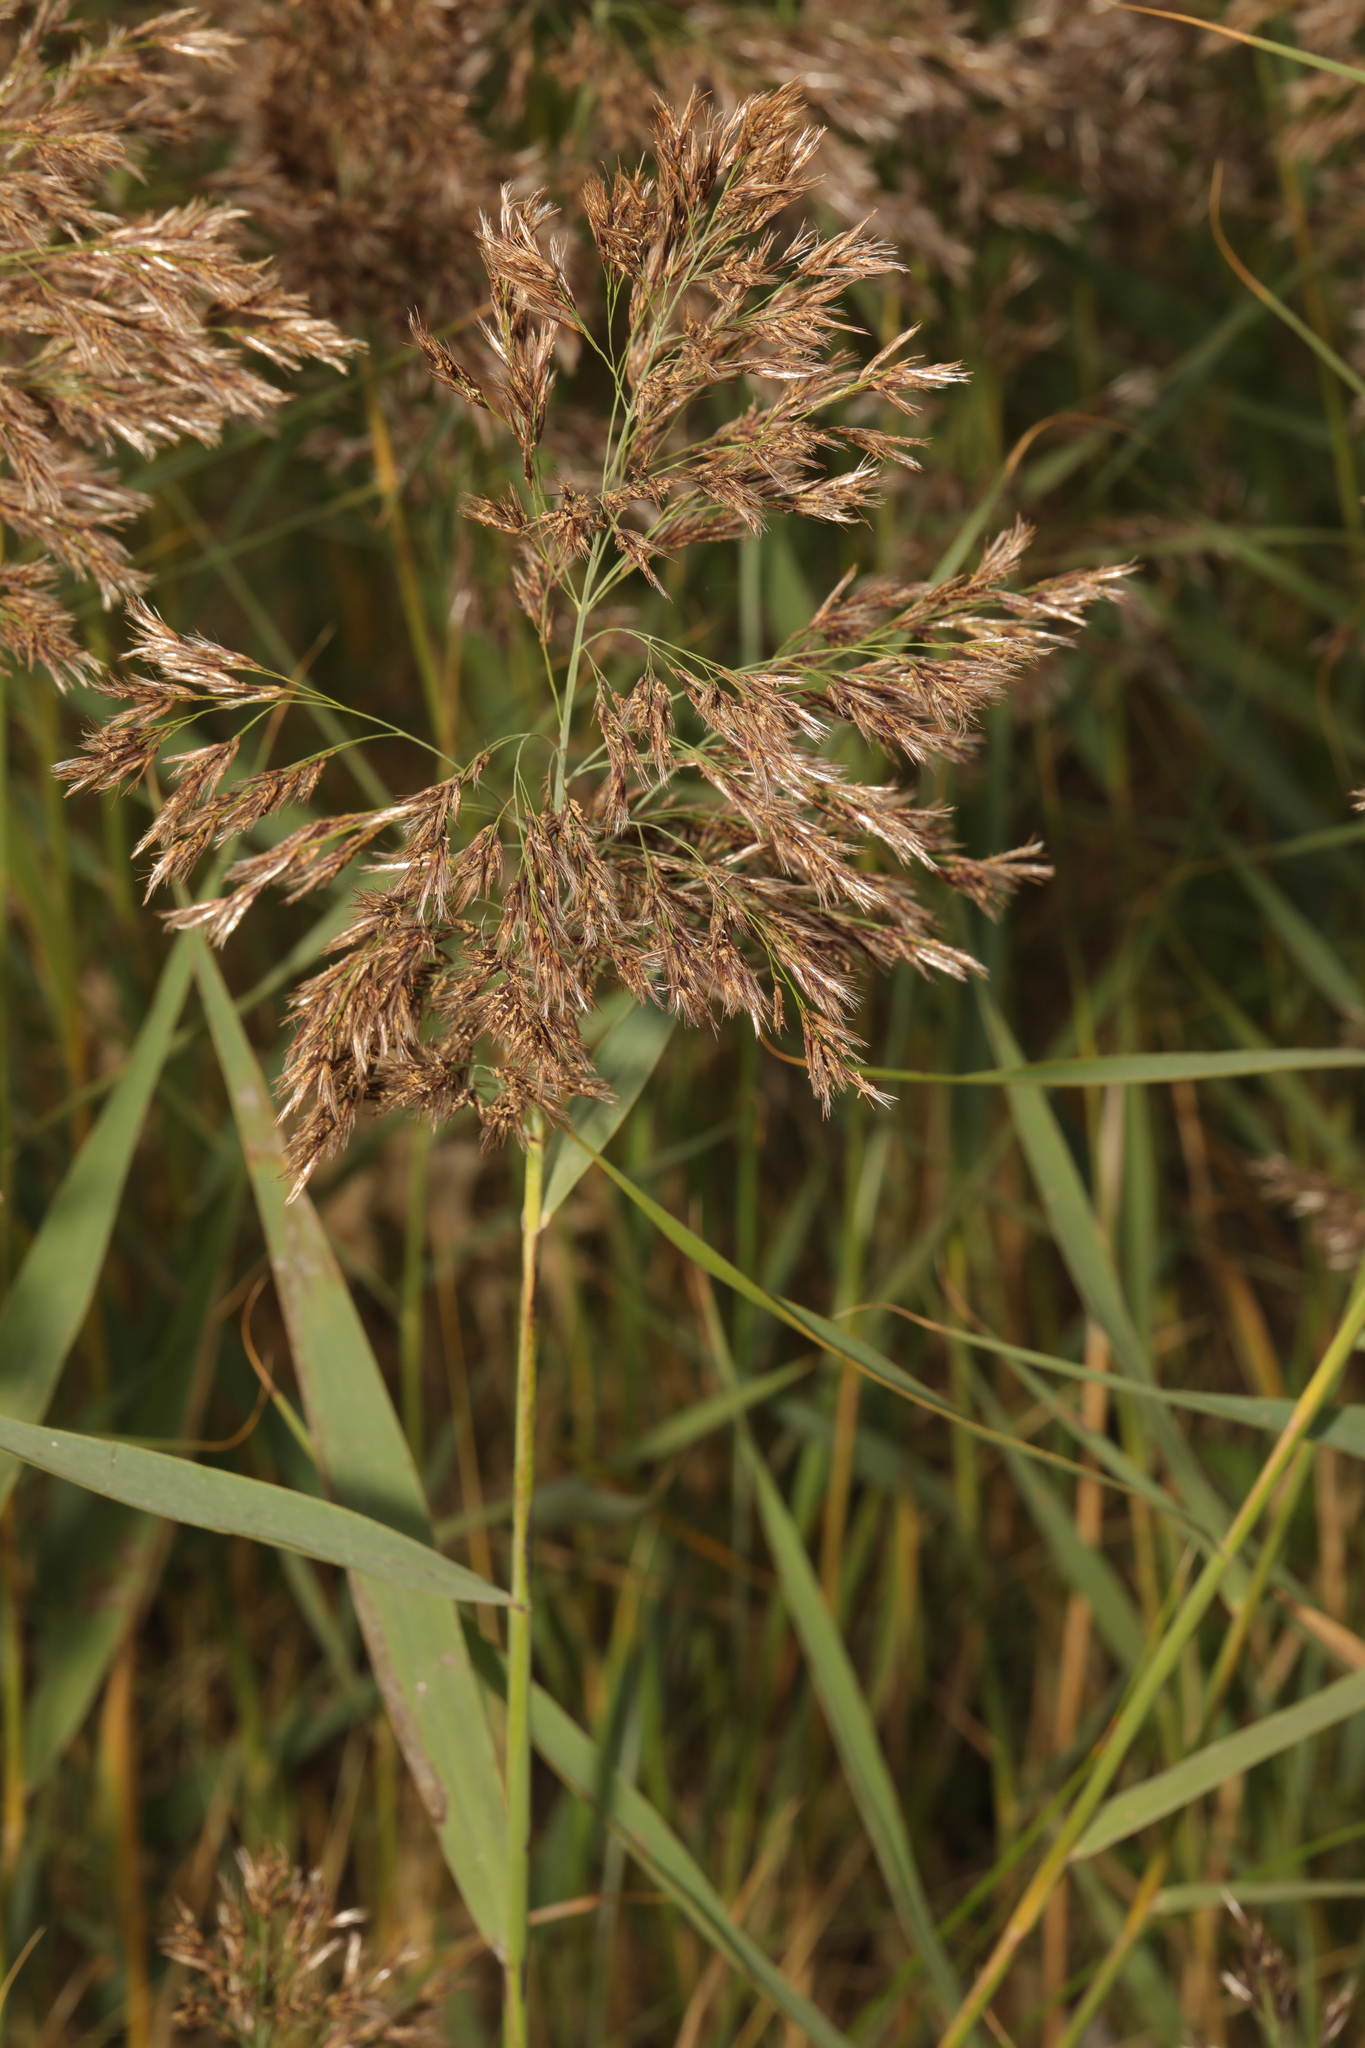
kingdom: Plantae
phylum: Tracheophyta
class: Liliopsida
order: Poales
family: Poaceae
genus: Phragmites
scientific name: Phragmites australis
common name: Common reed
